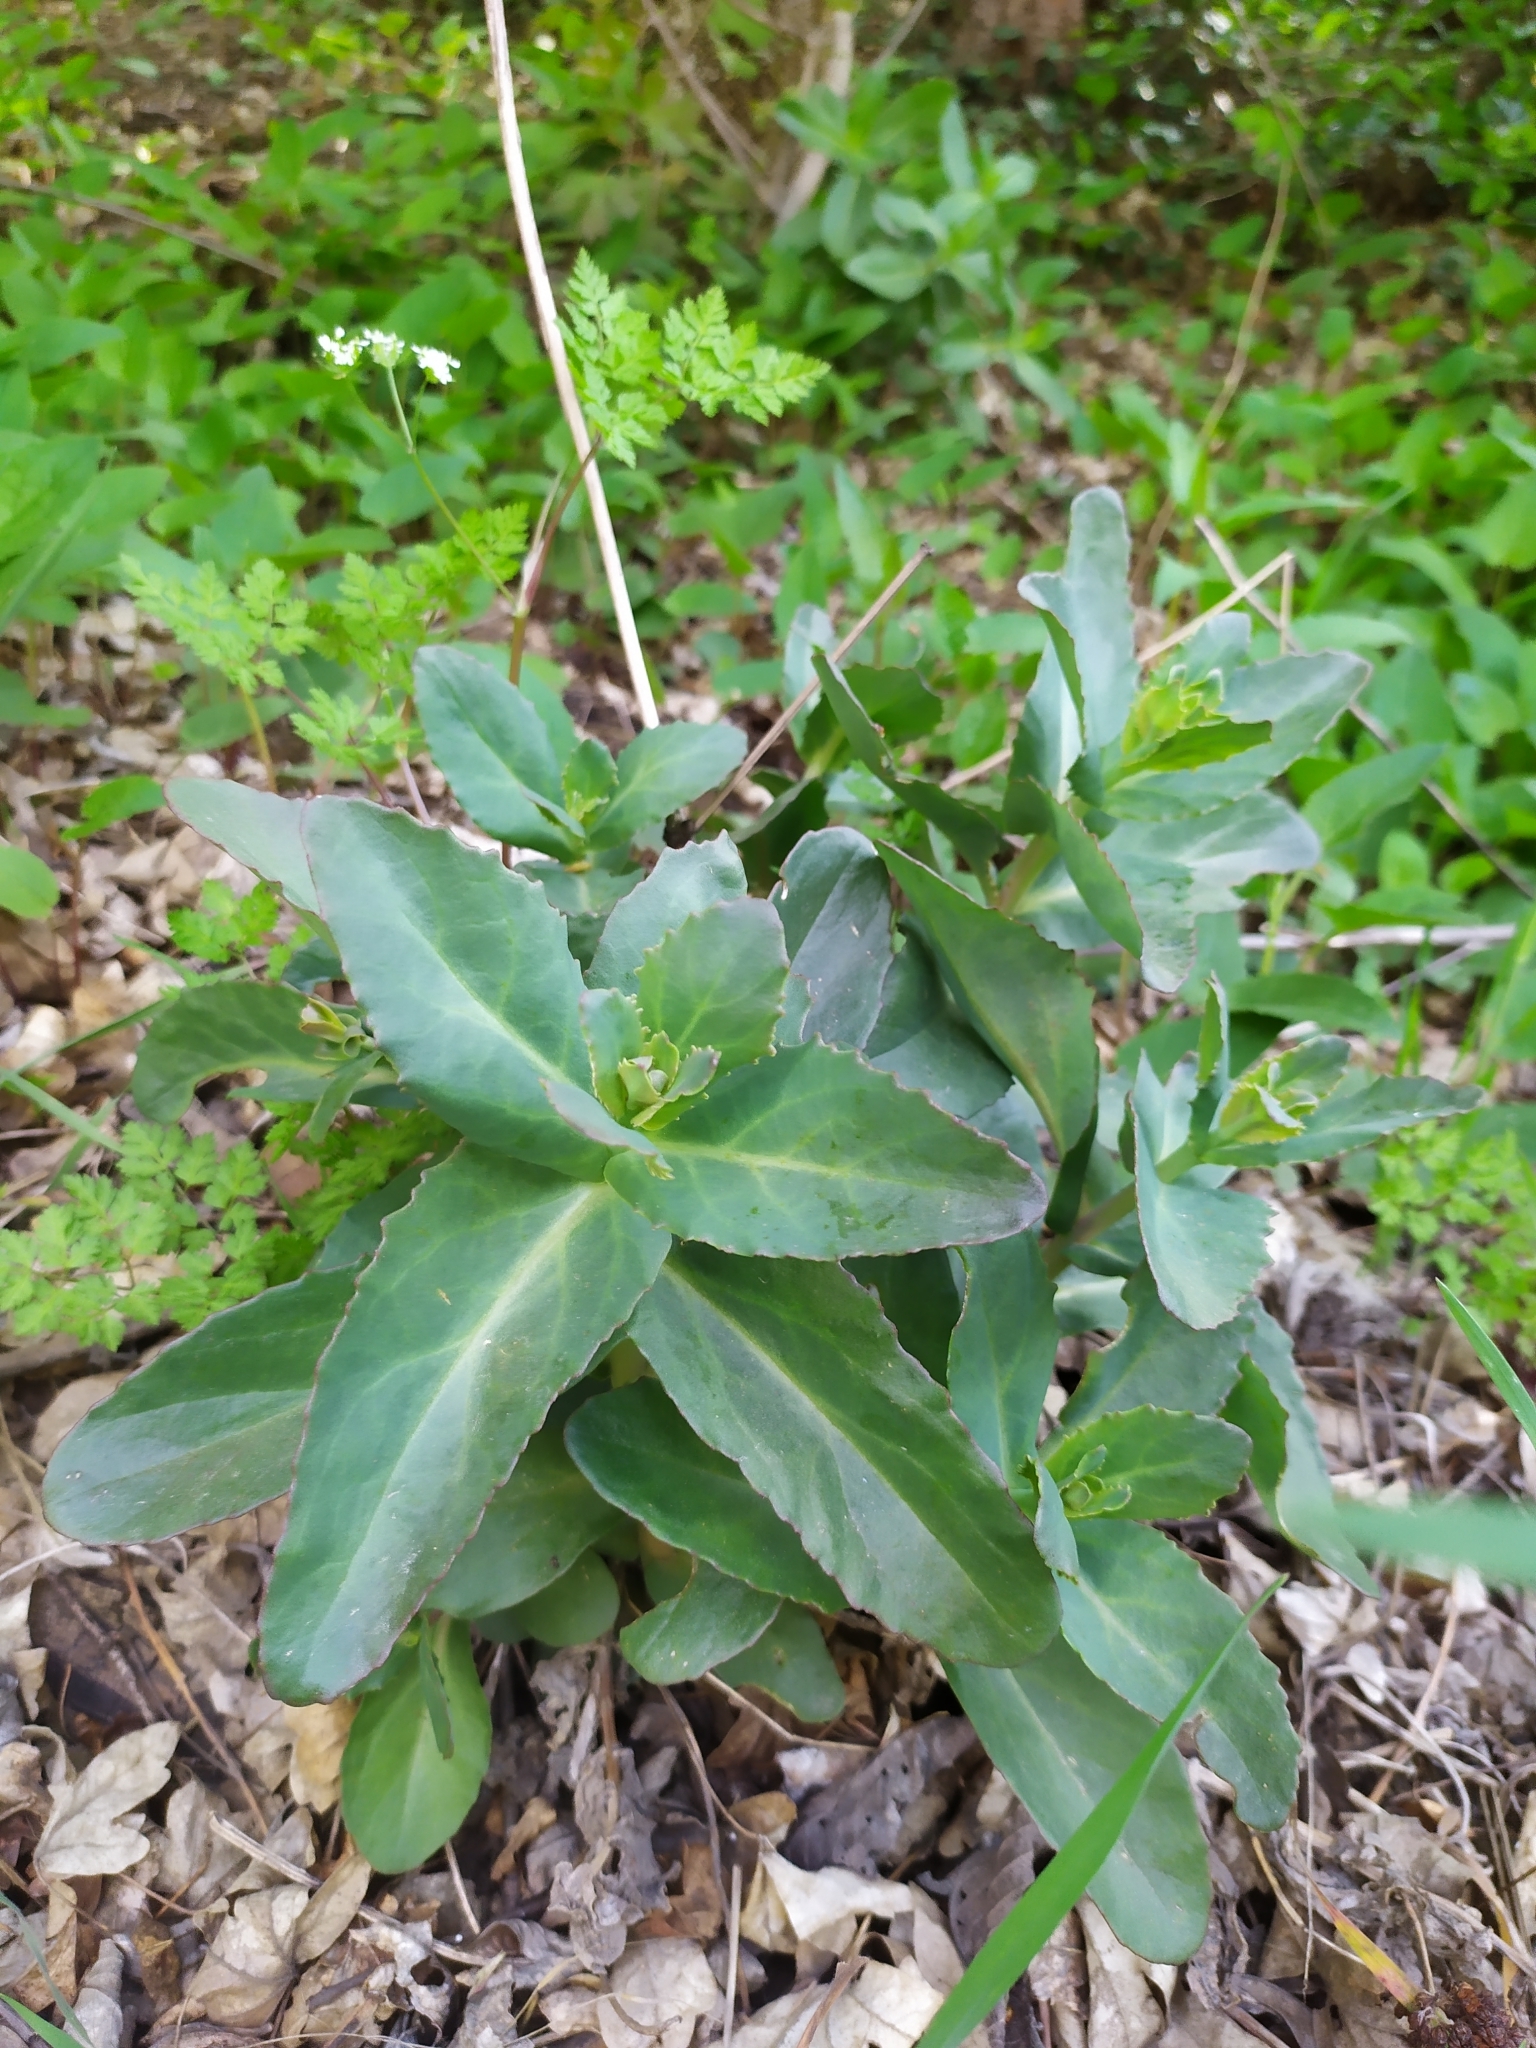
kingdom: Plantae
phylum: Tracheophyta
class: Magnoliopsida
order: Saxifragales
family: Crassulaceae
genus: Hylotelephium
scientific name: Hylotelephium maximum
